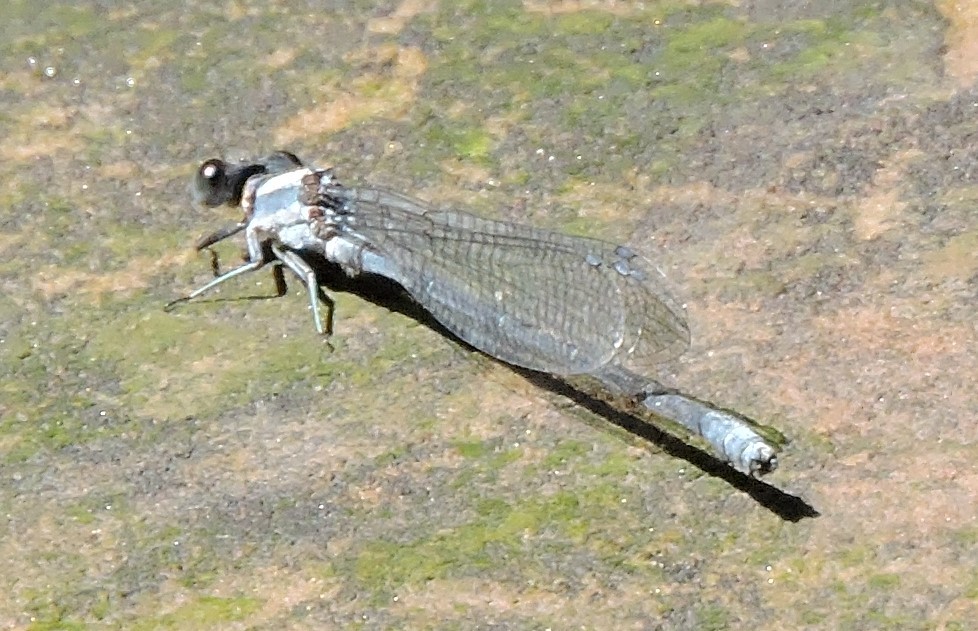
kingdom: Animalia
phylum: Arthropoda
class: Insecta
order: Odonata
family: Coenagrionidae
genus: Argia
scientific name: Argia moesta
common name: Powdered dancer
